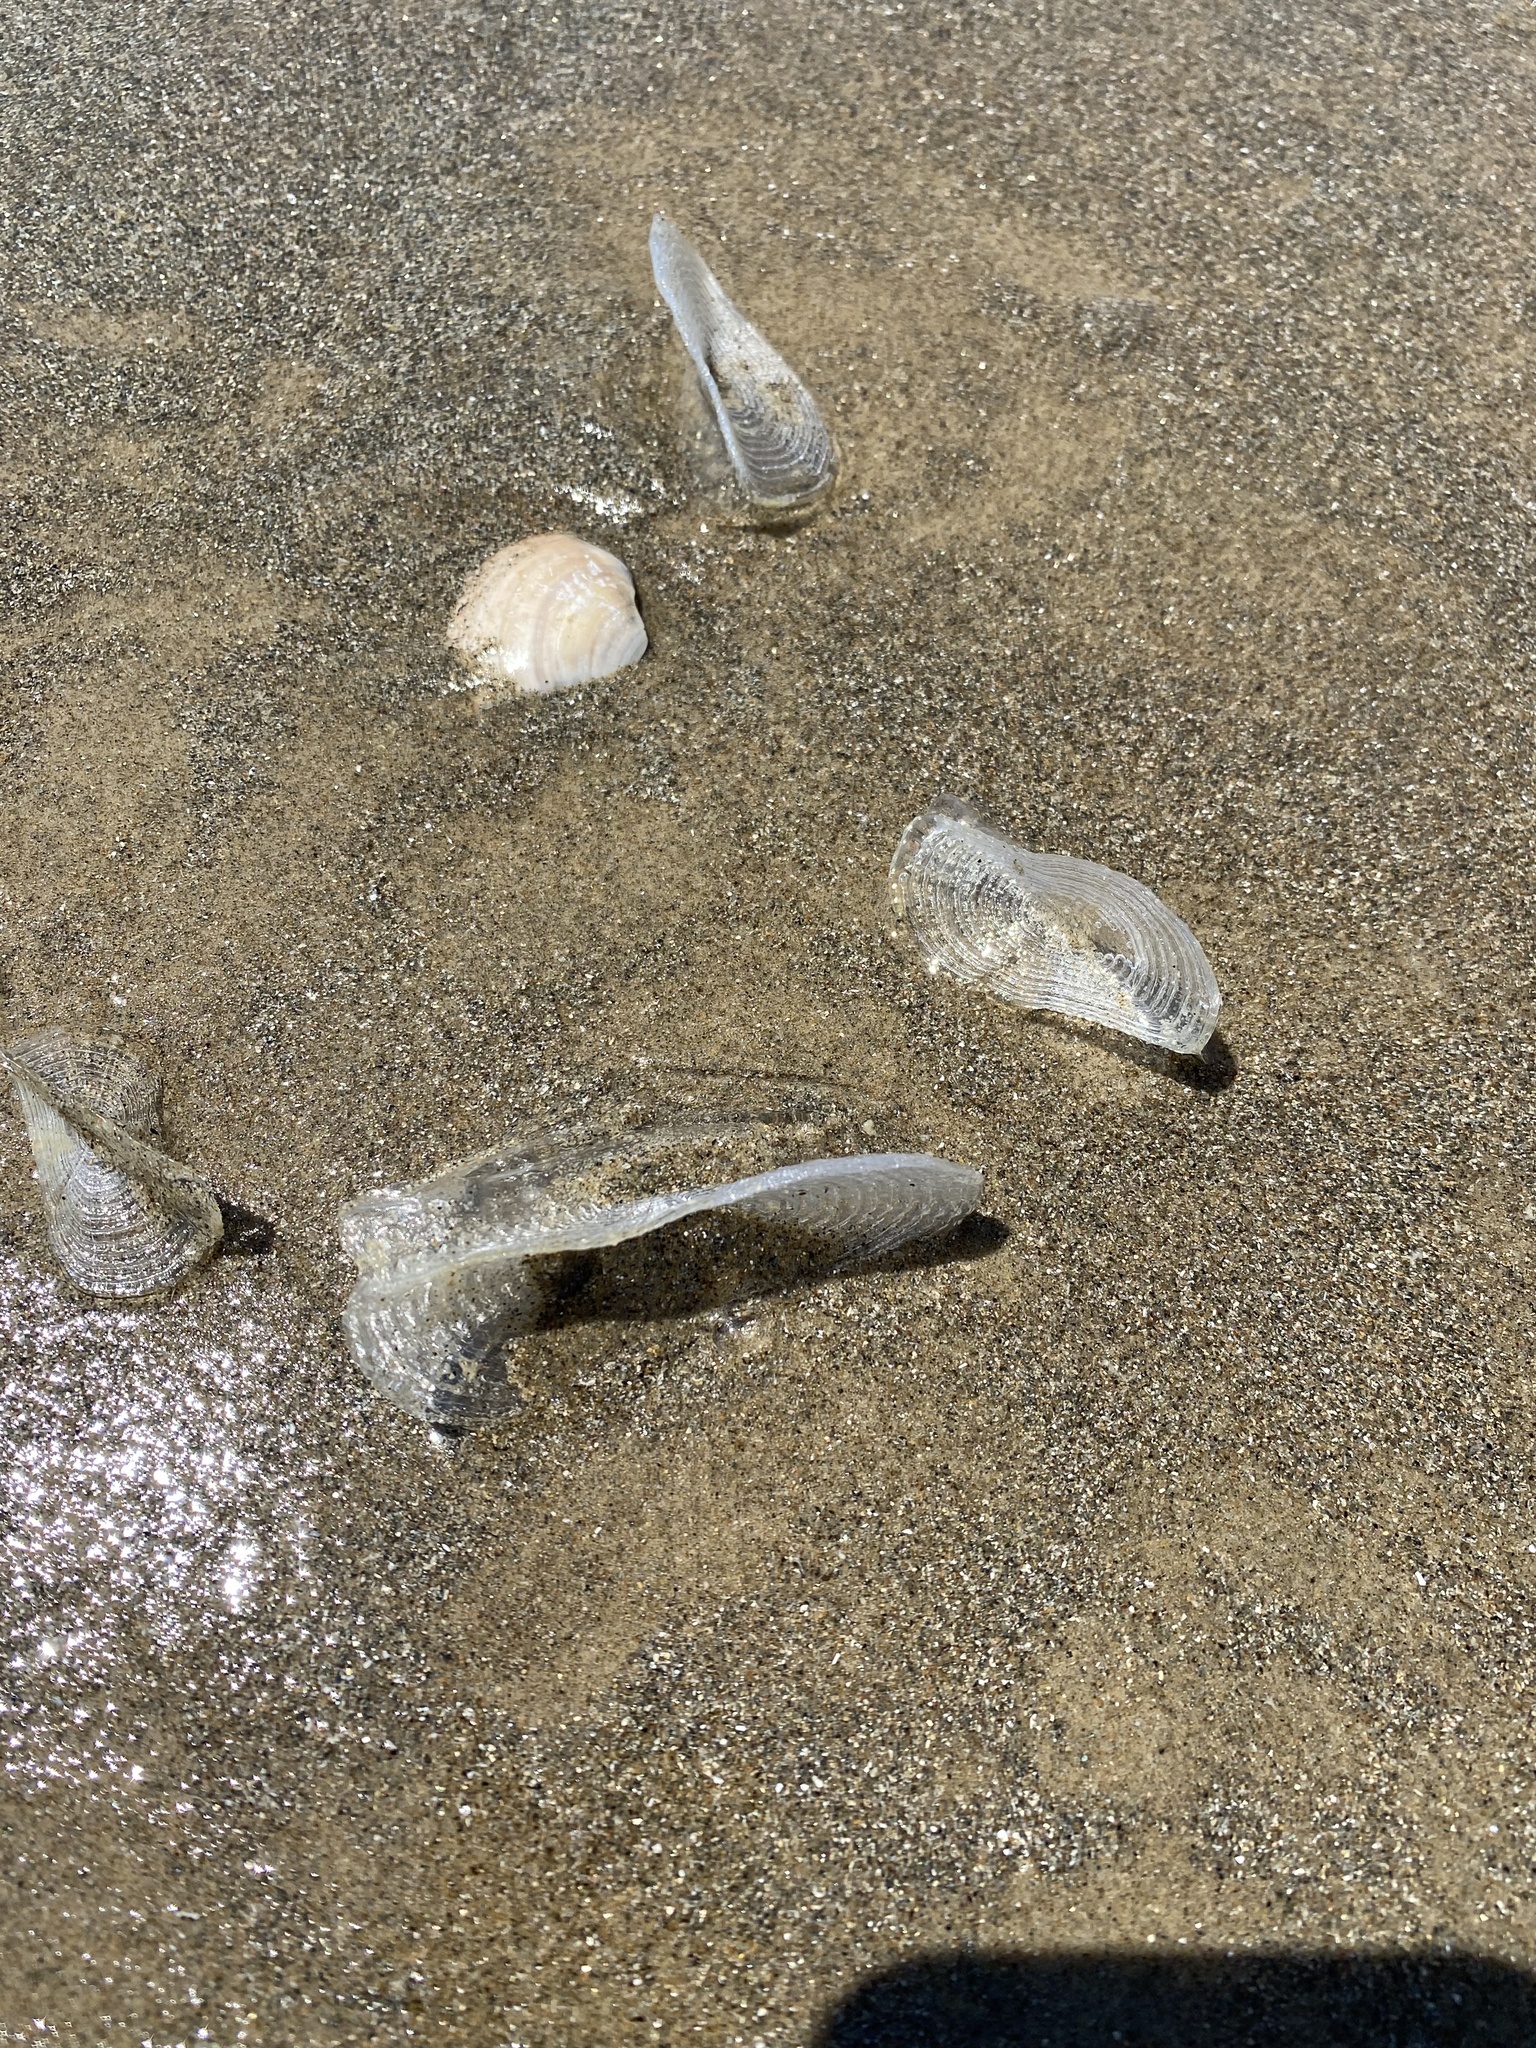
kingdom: Animalia
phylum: Cnidaria
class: Hydrozoa
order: Anthoathecata
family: Porpitidae
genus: Velella
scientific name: Velella velella
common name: By-the-wind-sailor
